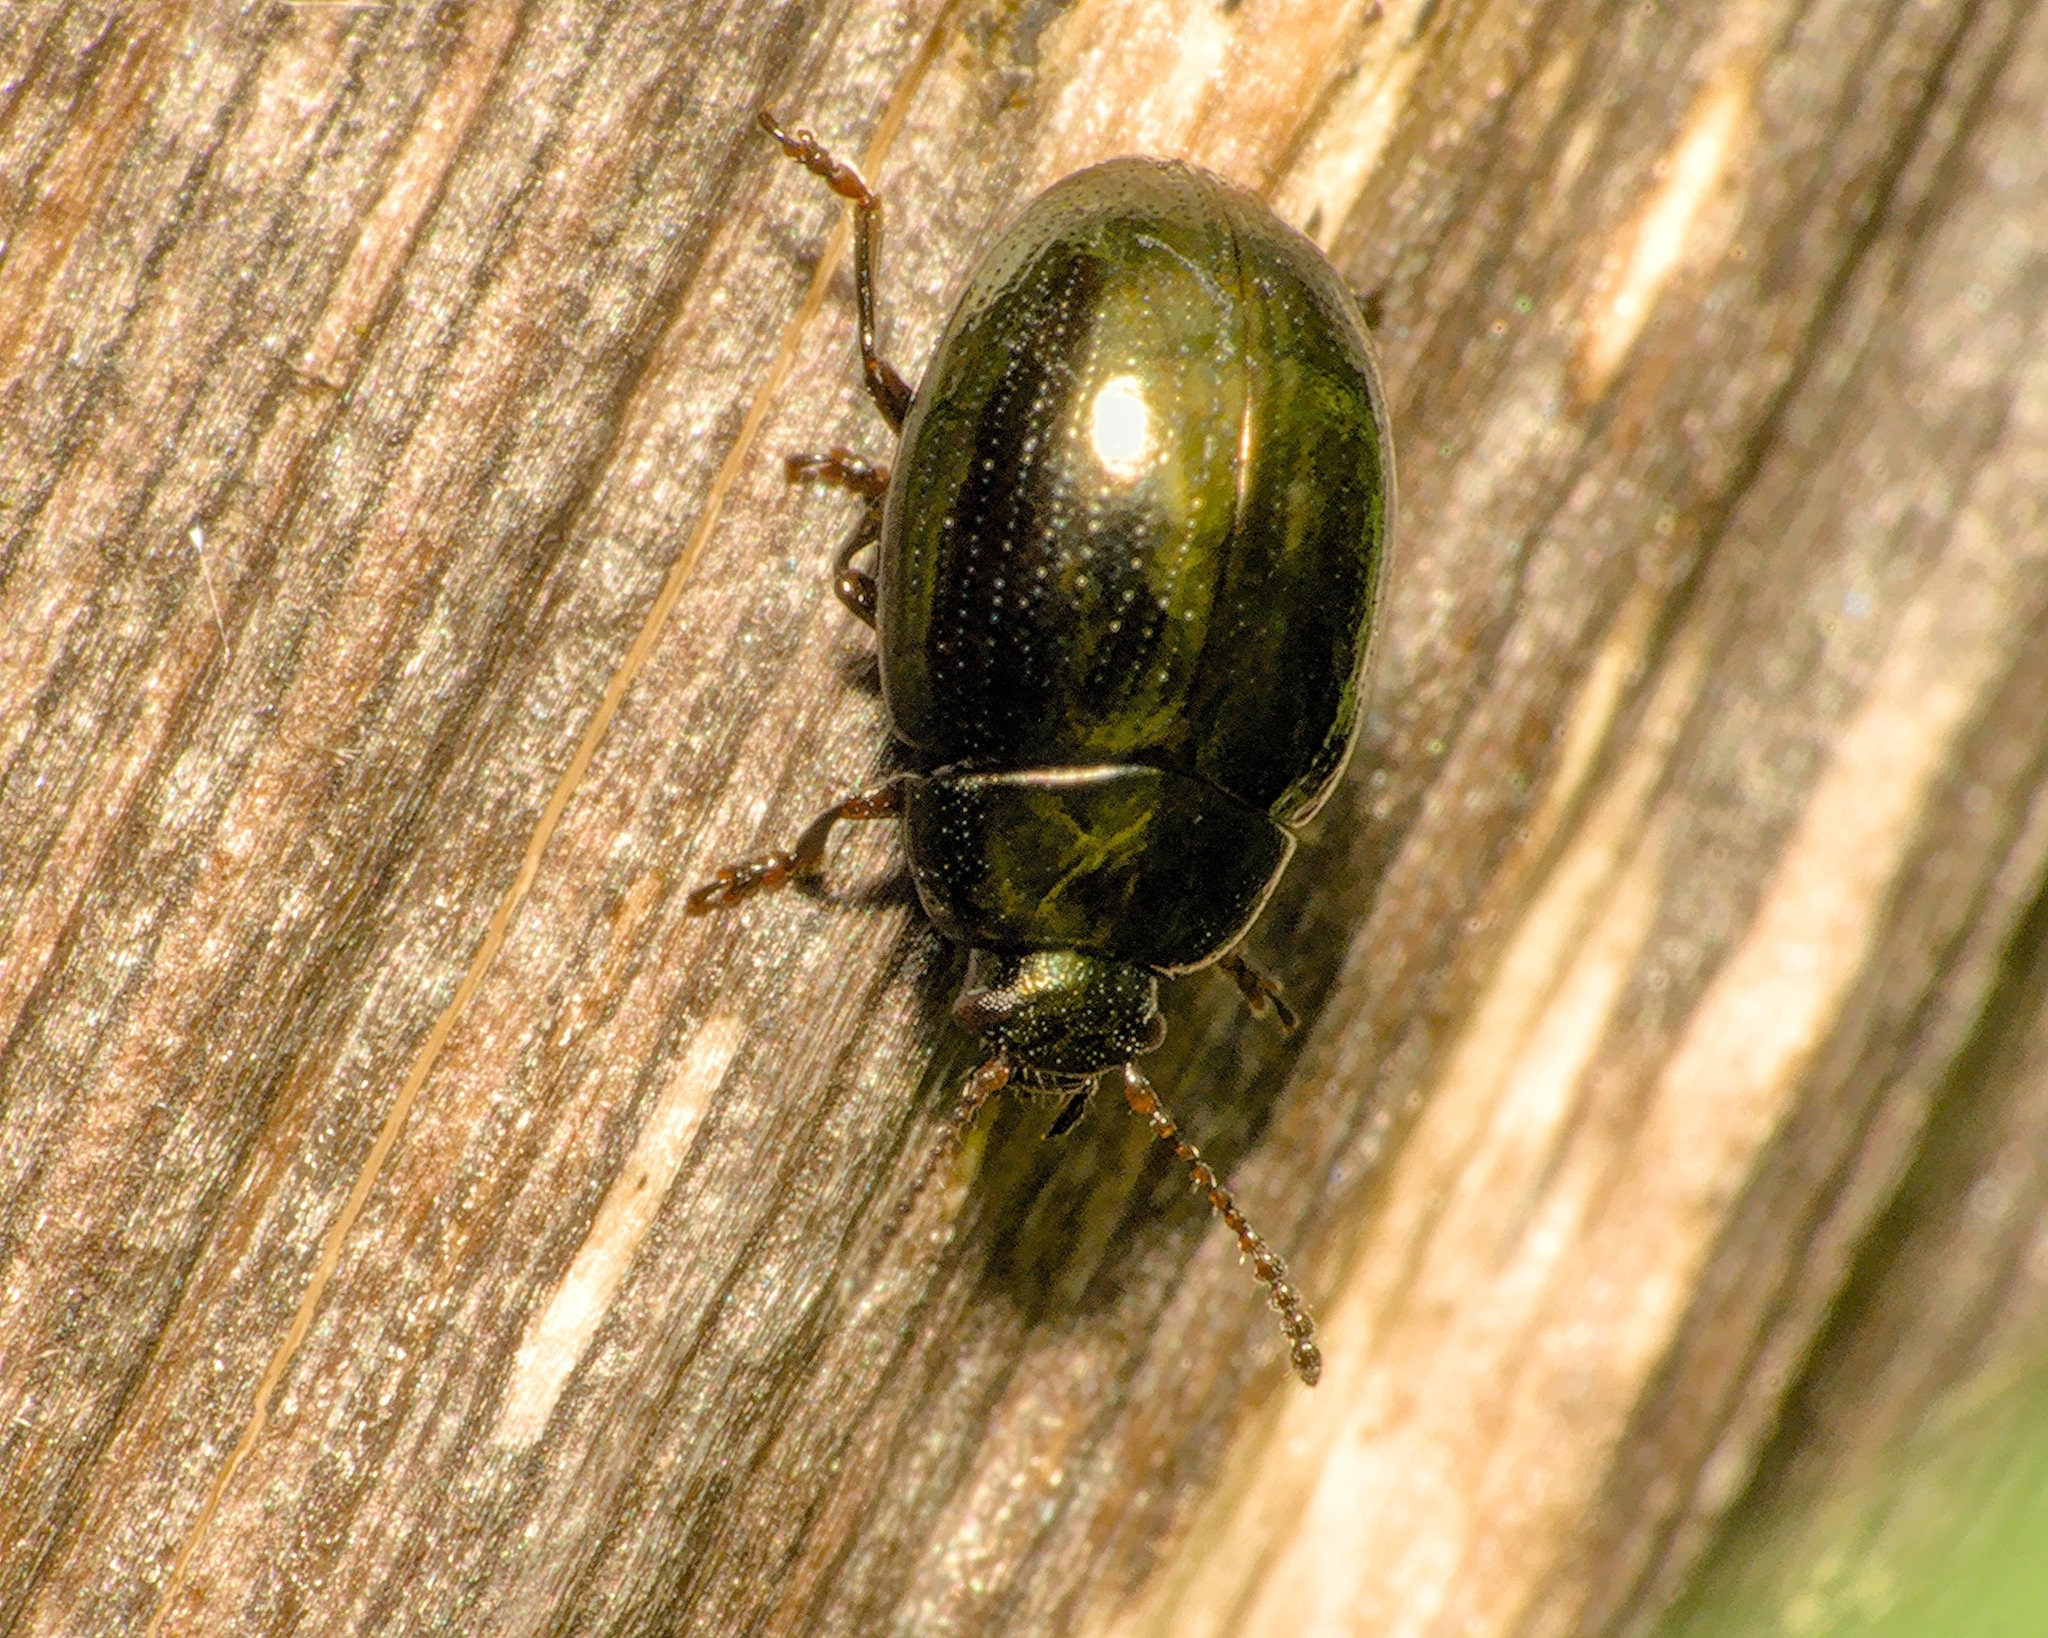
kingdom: Animalia
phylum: Arthropoda
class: Insecta
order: Coleoptera
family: Chrysomelidae
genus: Phaedon
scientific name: Phaedon tumidulus
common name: Celery leaf beetle
